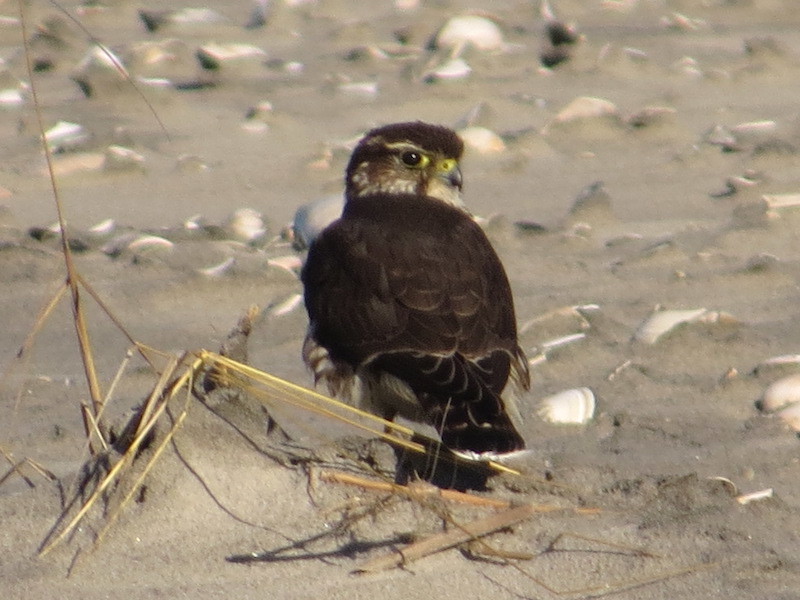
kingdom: Animalia
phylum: Chordata
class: Aves
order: Falconiformes
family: Falconidae
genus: Falco
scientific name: Falco columbarius
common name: Merlin
